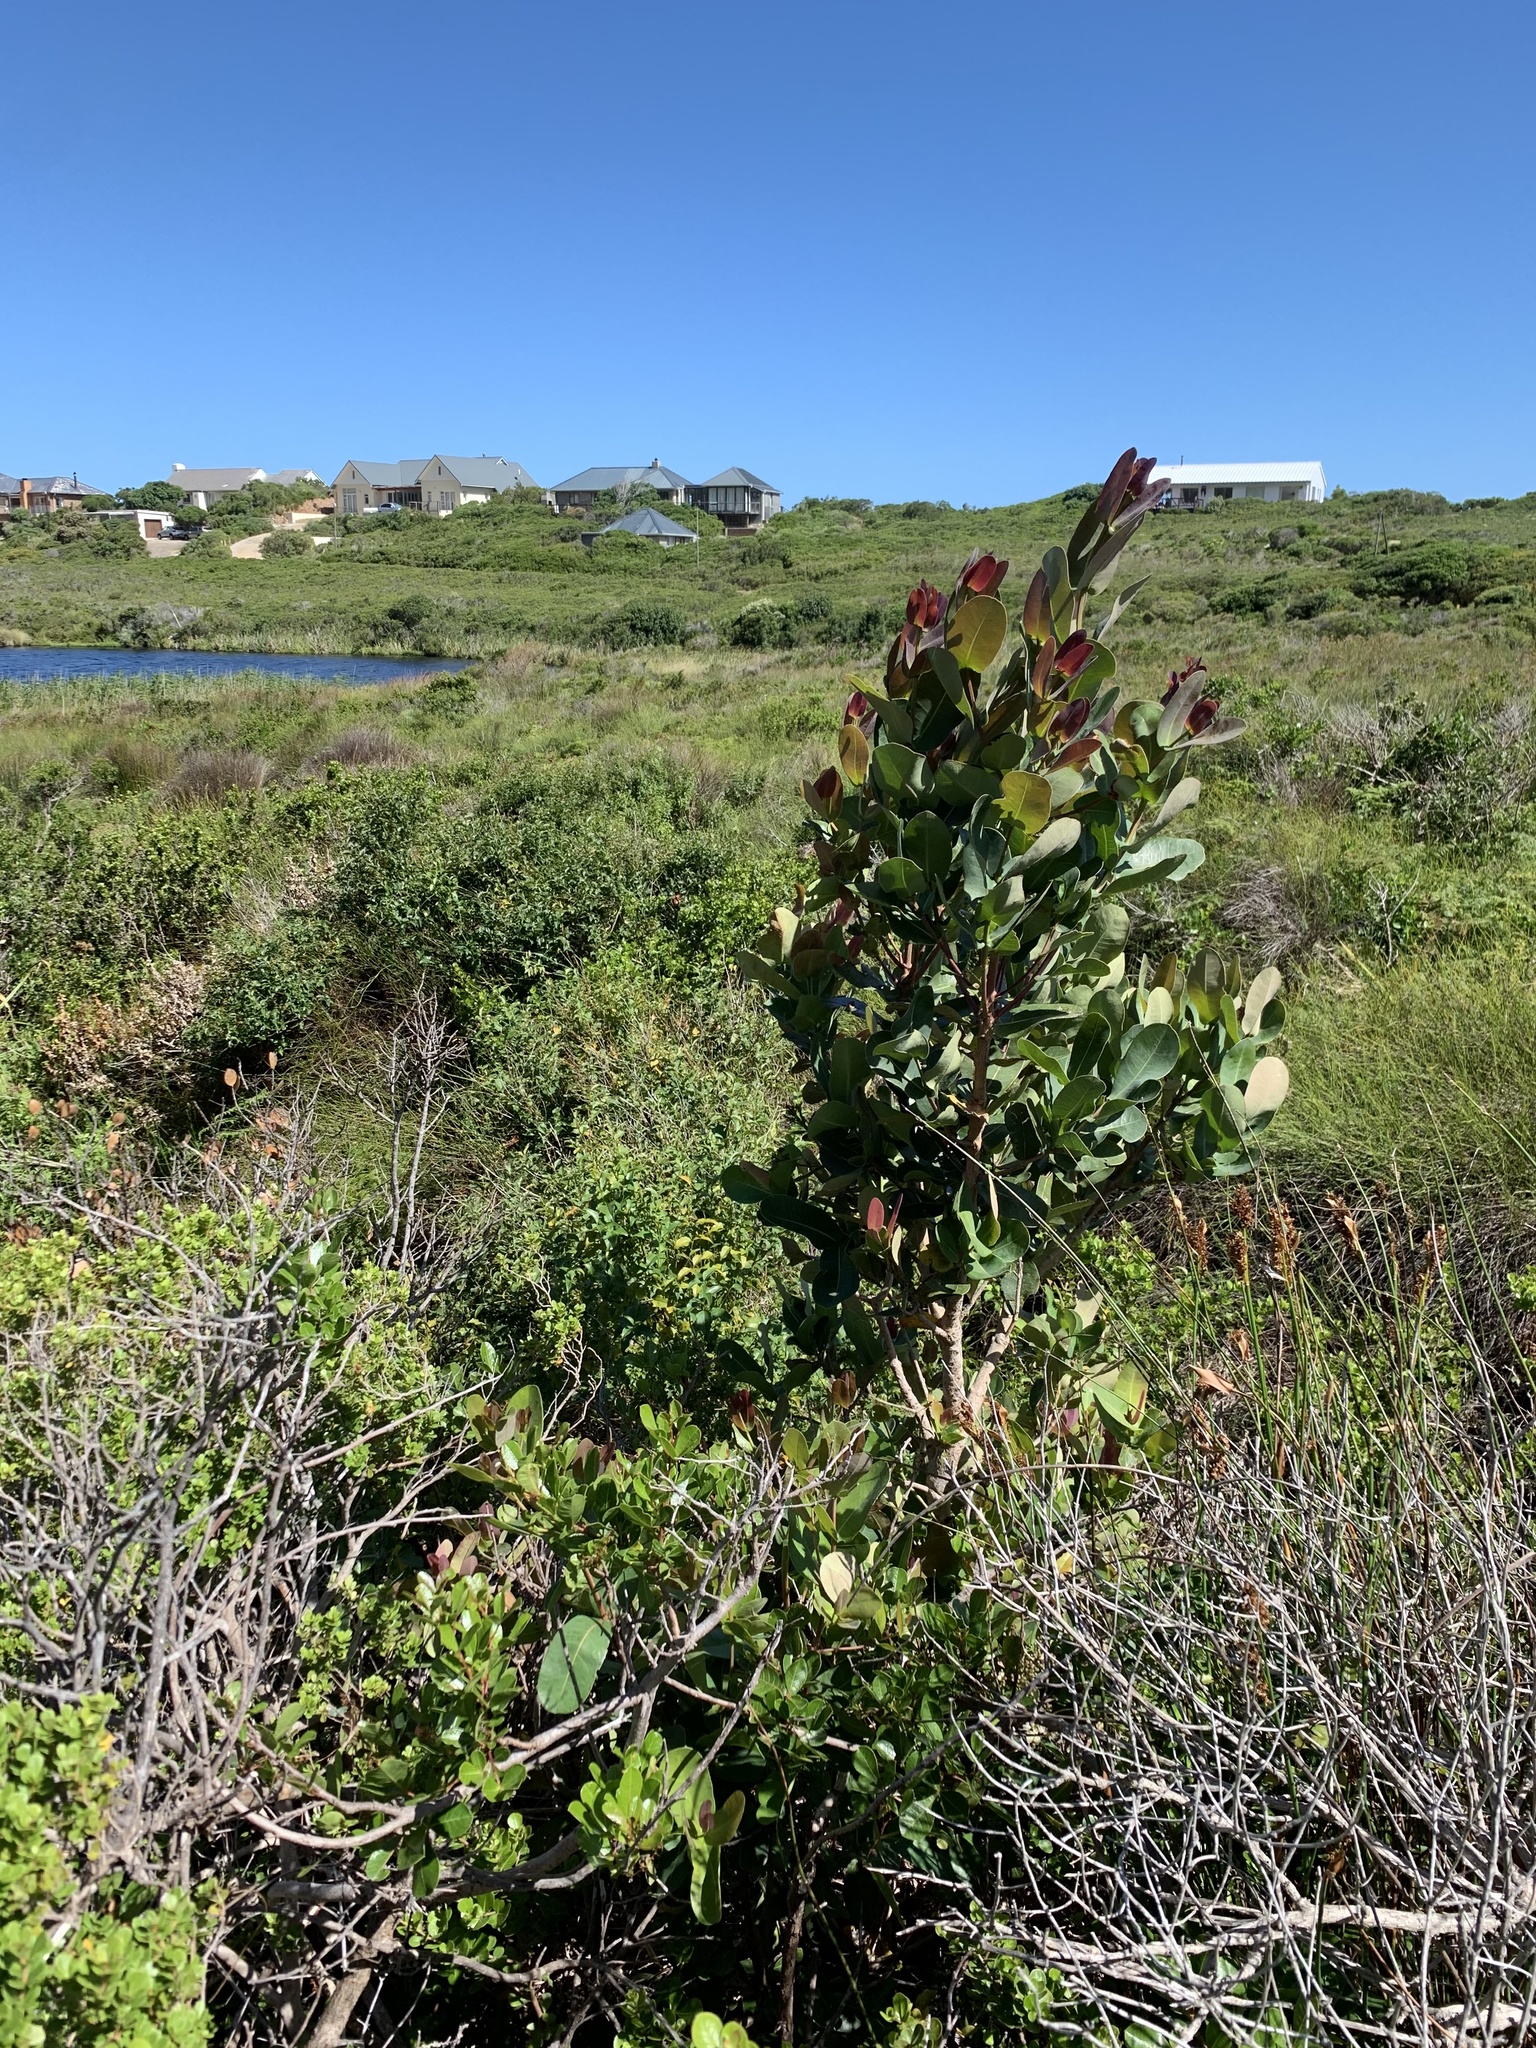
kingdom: Plantae
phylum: Tracheophyta
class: Magnoliopsida
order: Myrtales
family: Myrtaceae
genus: Syzygium
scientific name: Syzygium cordatum
